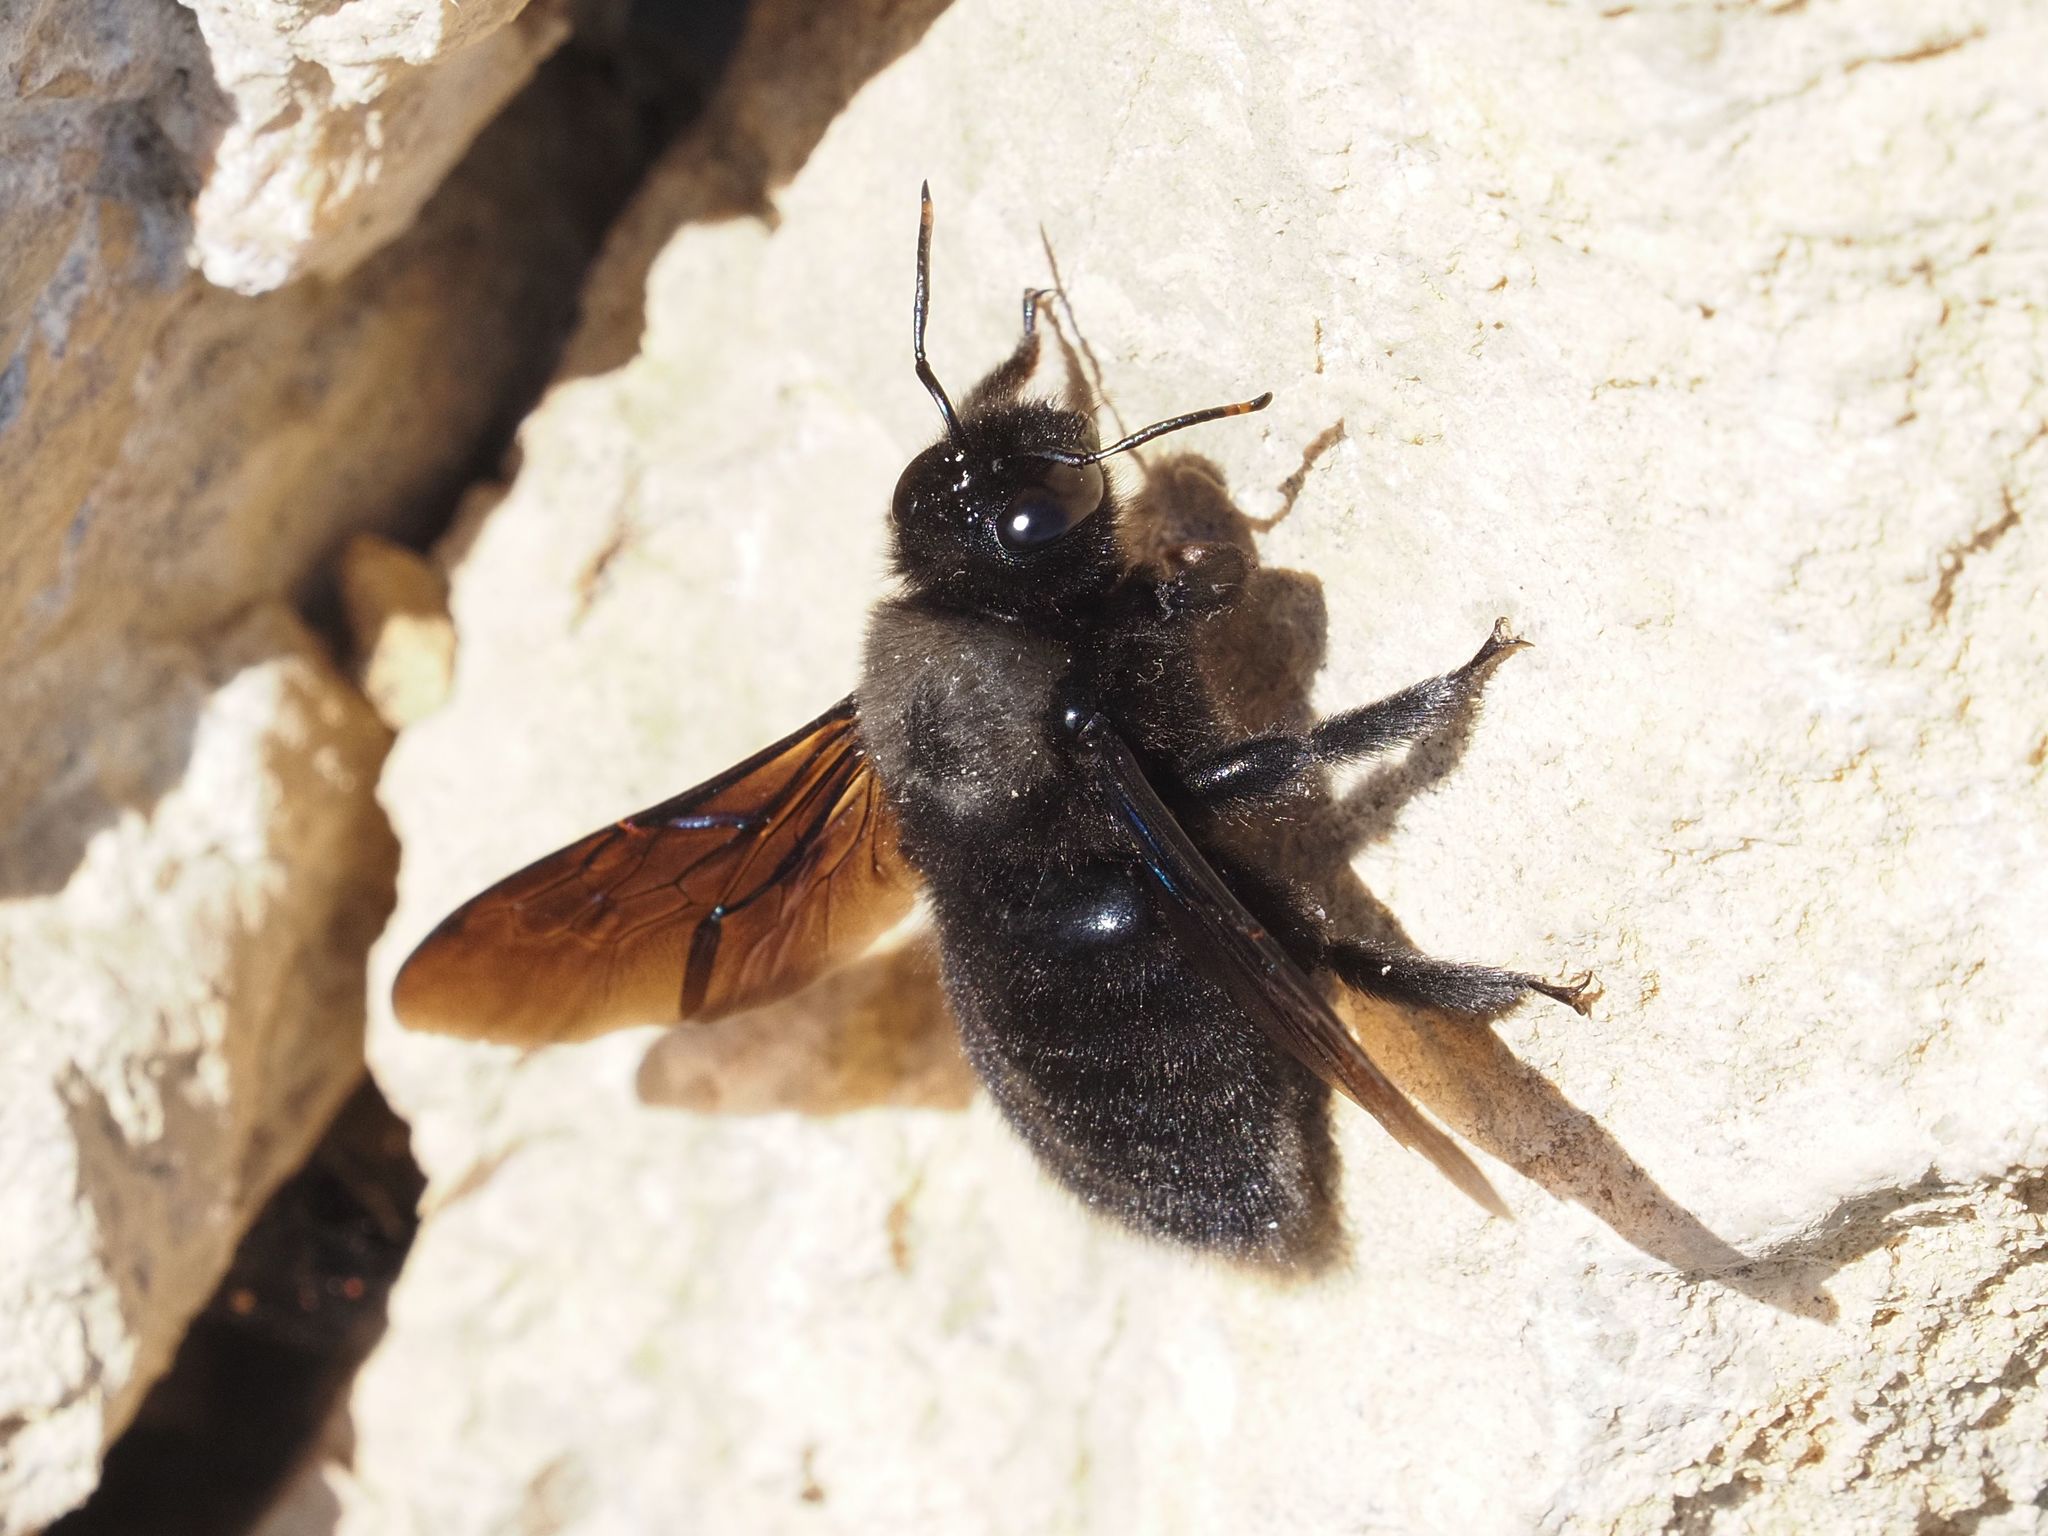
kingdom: Animalia
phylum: Arthropoda
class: Insecta
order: Hymenoptera
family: Apidae
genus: Xylocopa
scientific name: Xylocopa violacea
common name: Violet carpenter bee
